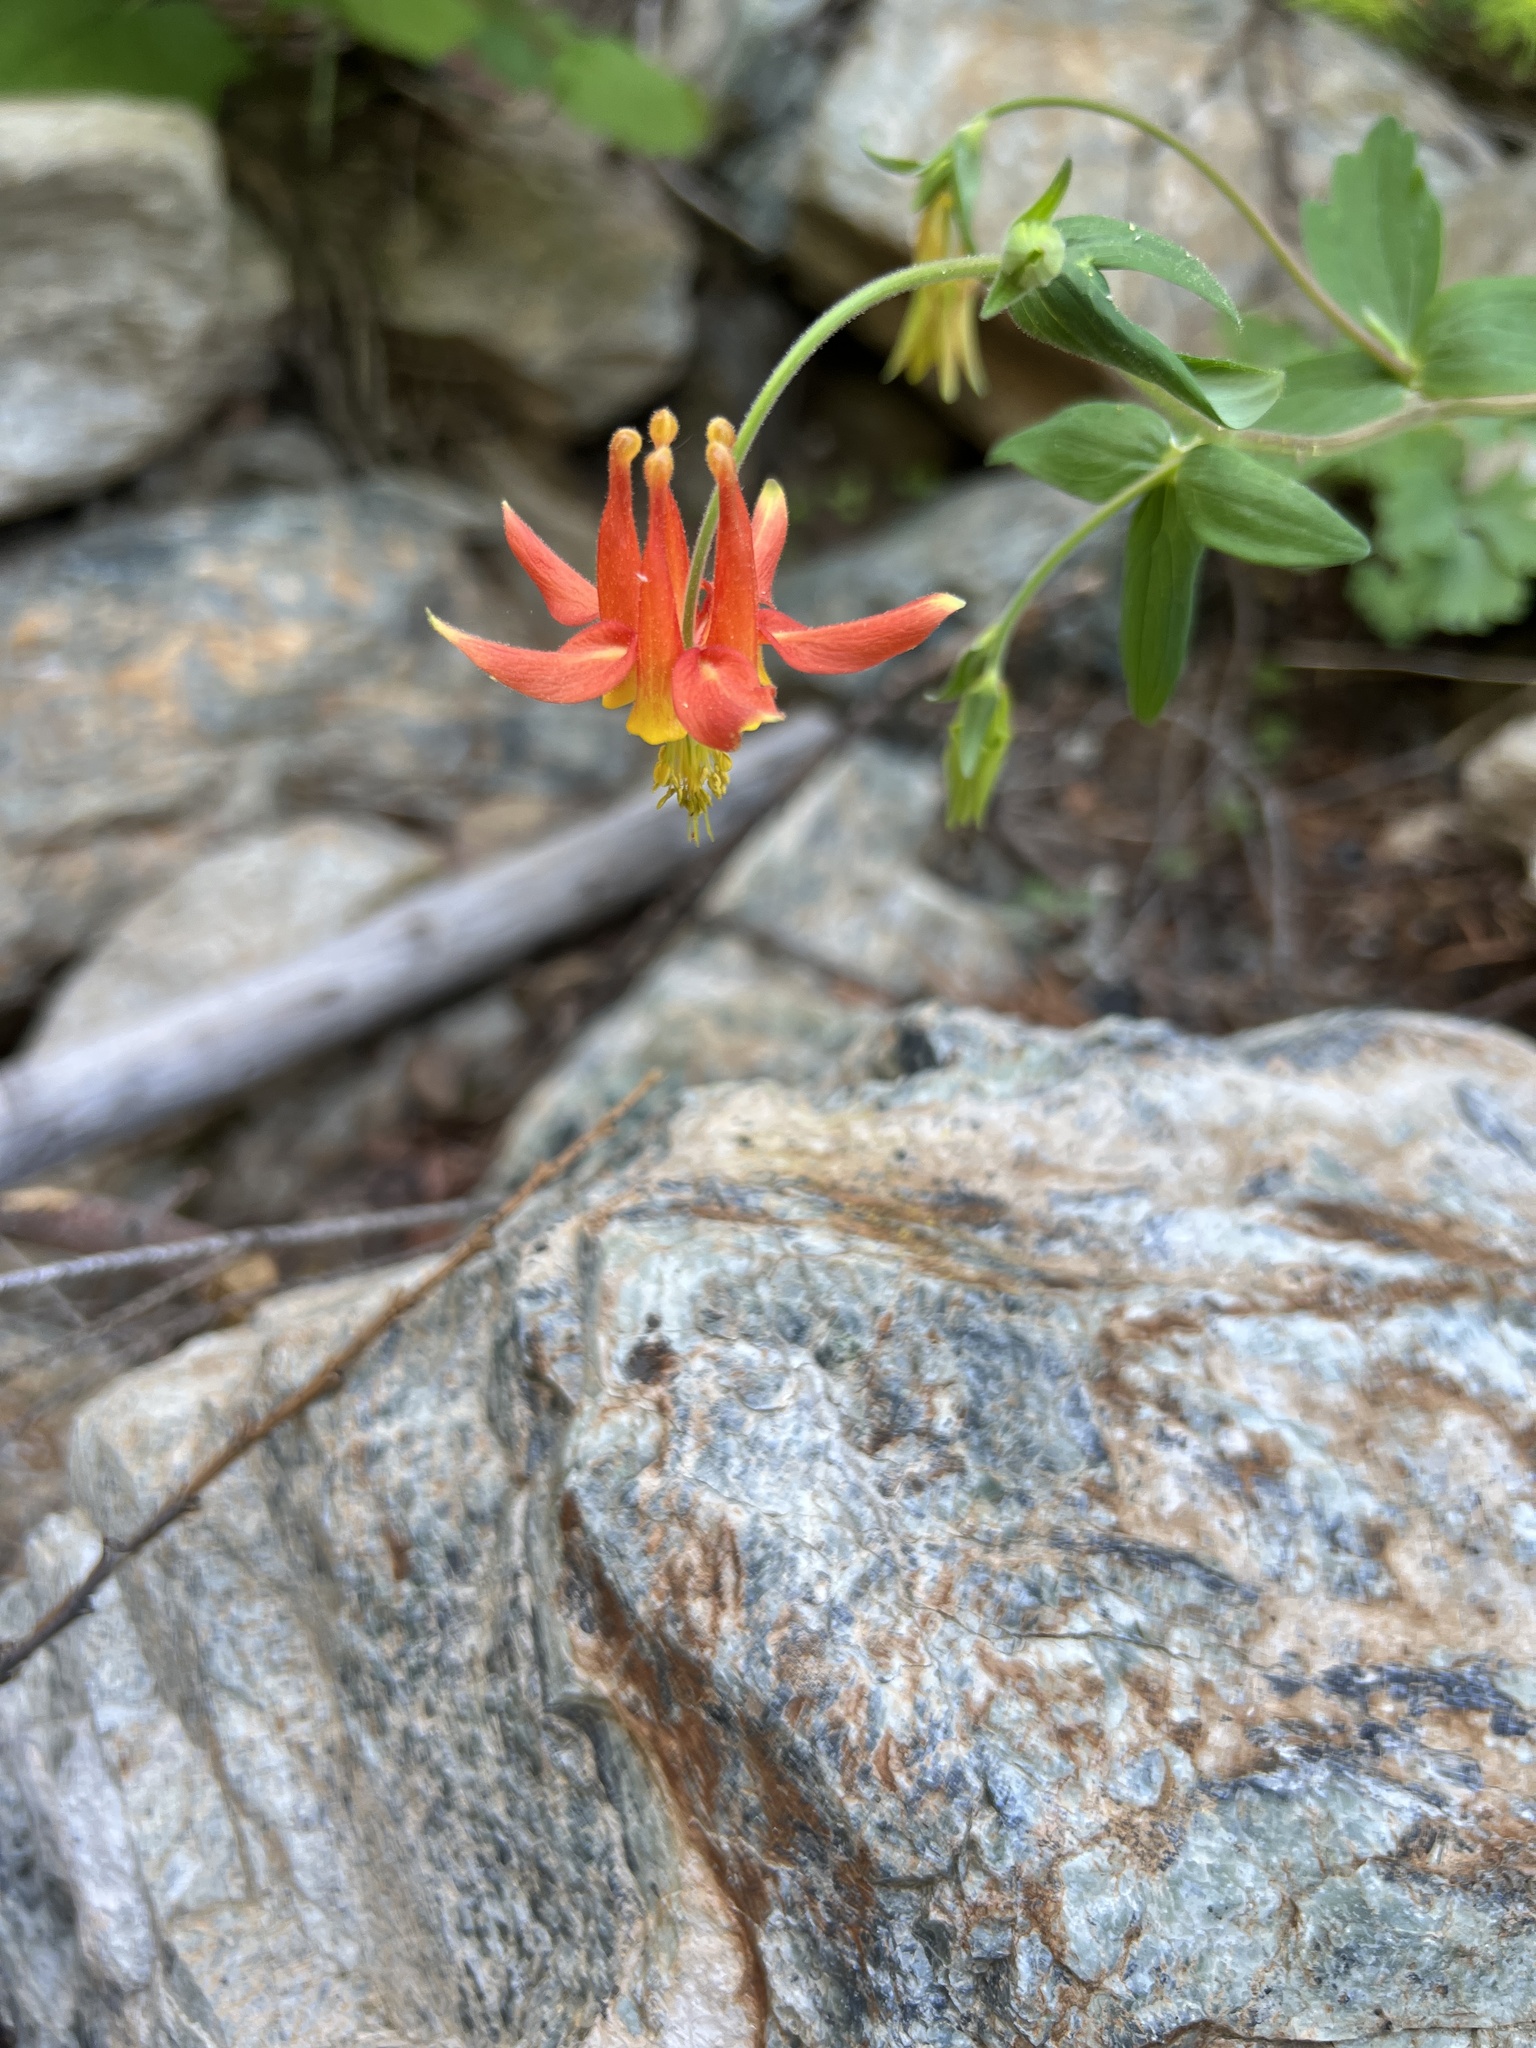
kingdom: Plantae
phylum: Tracheophyta
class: Magnoliopsida
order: Ranunculales
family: Ranunculaceae
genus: Aquilegia
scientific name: Aquilegia formosa
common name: Sitka columbine
